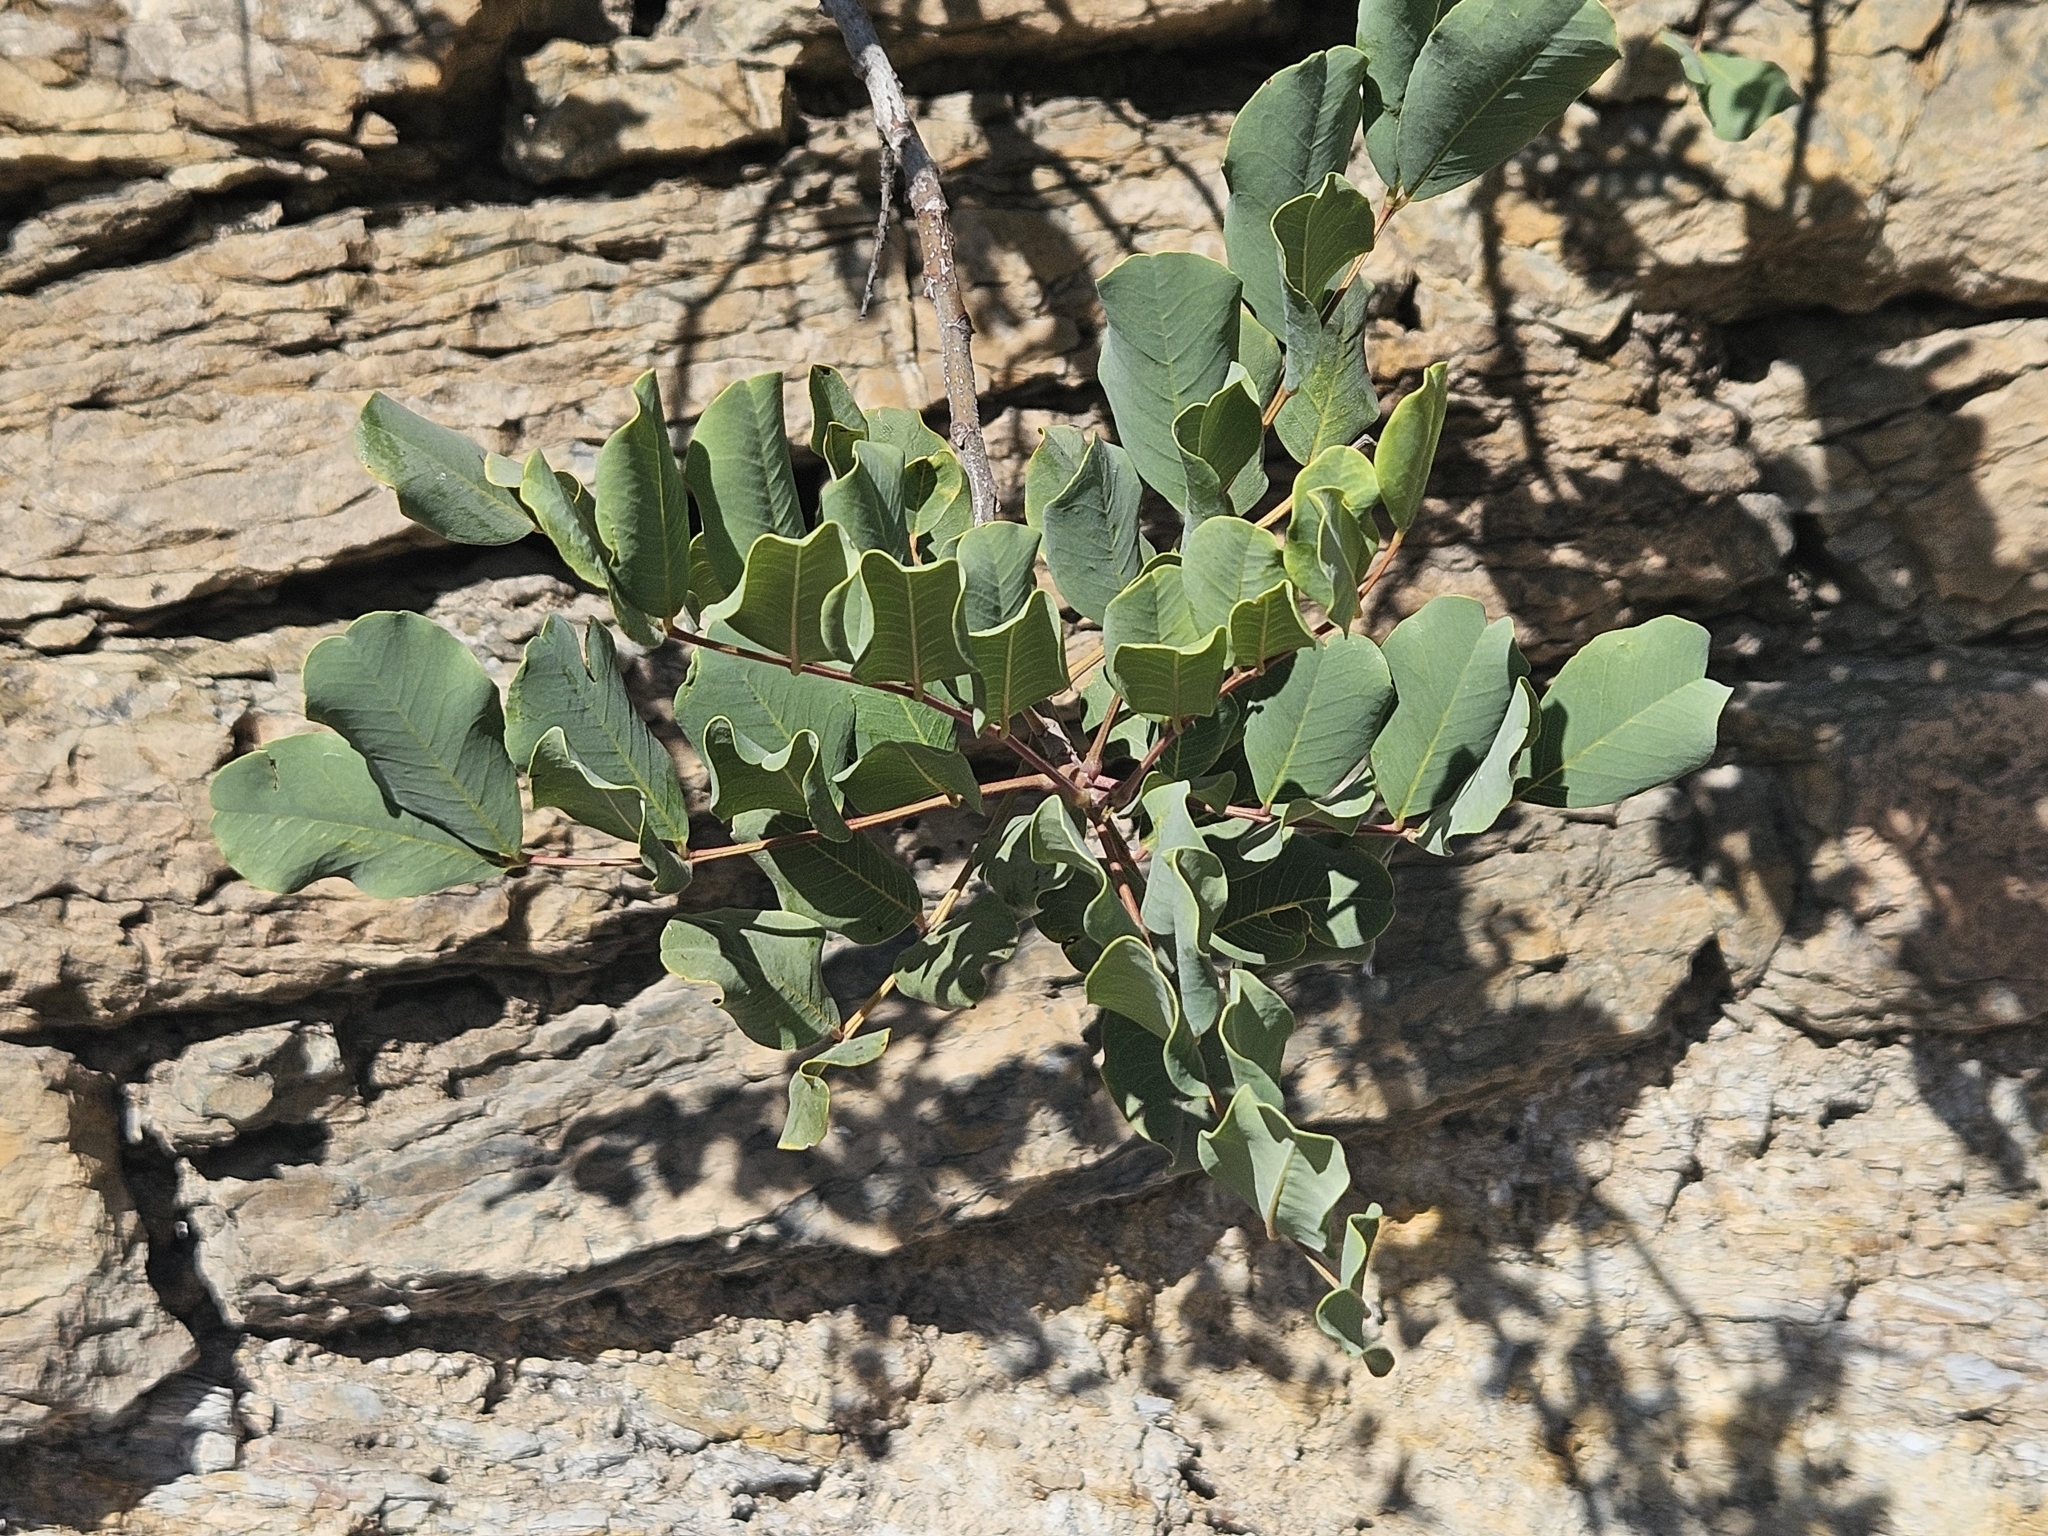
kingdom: Plantae
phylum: Tracheophyta
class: Magnoliopsida
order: Fabales
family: Fabaceae
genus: Ceratonia
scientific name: Ceratonia siliqua
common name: Carob
